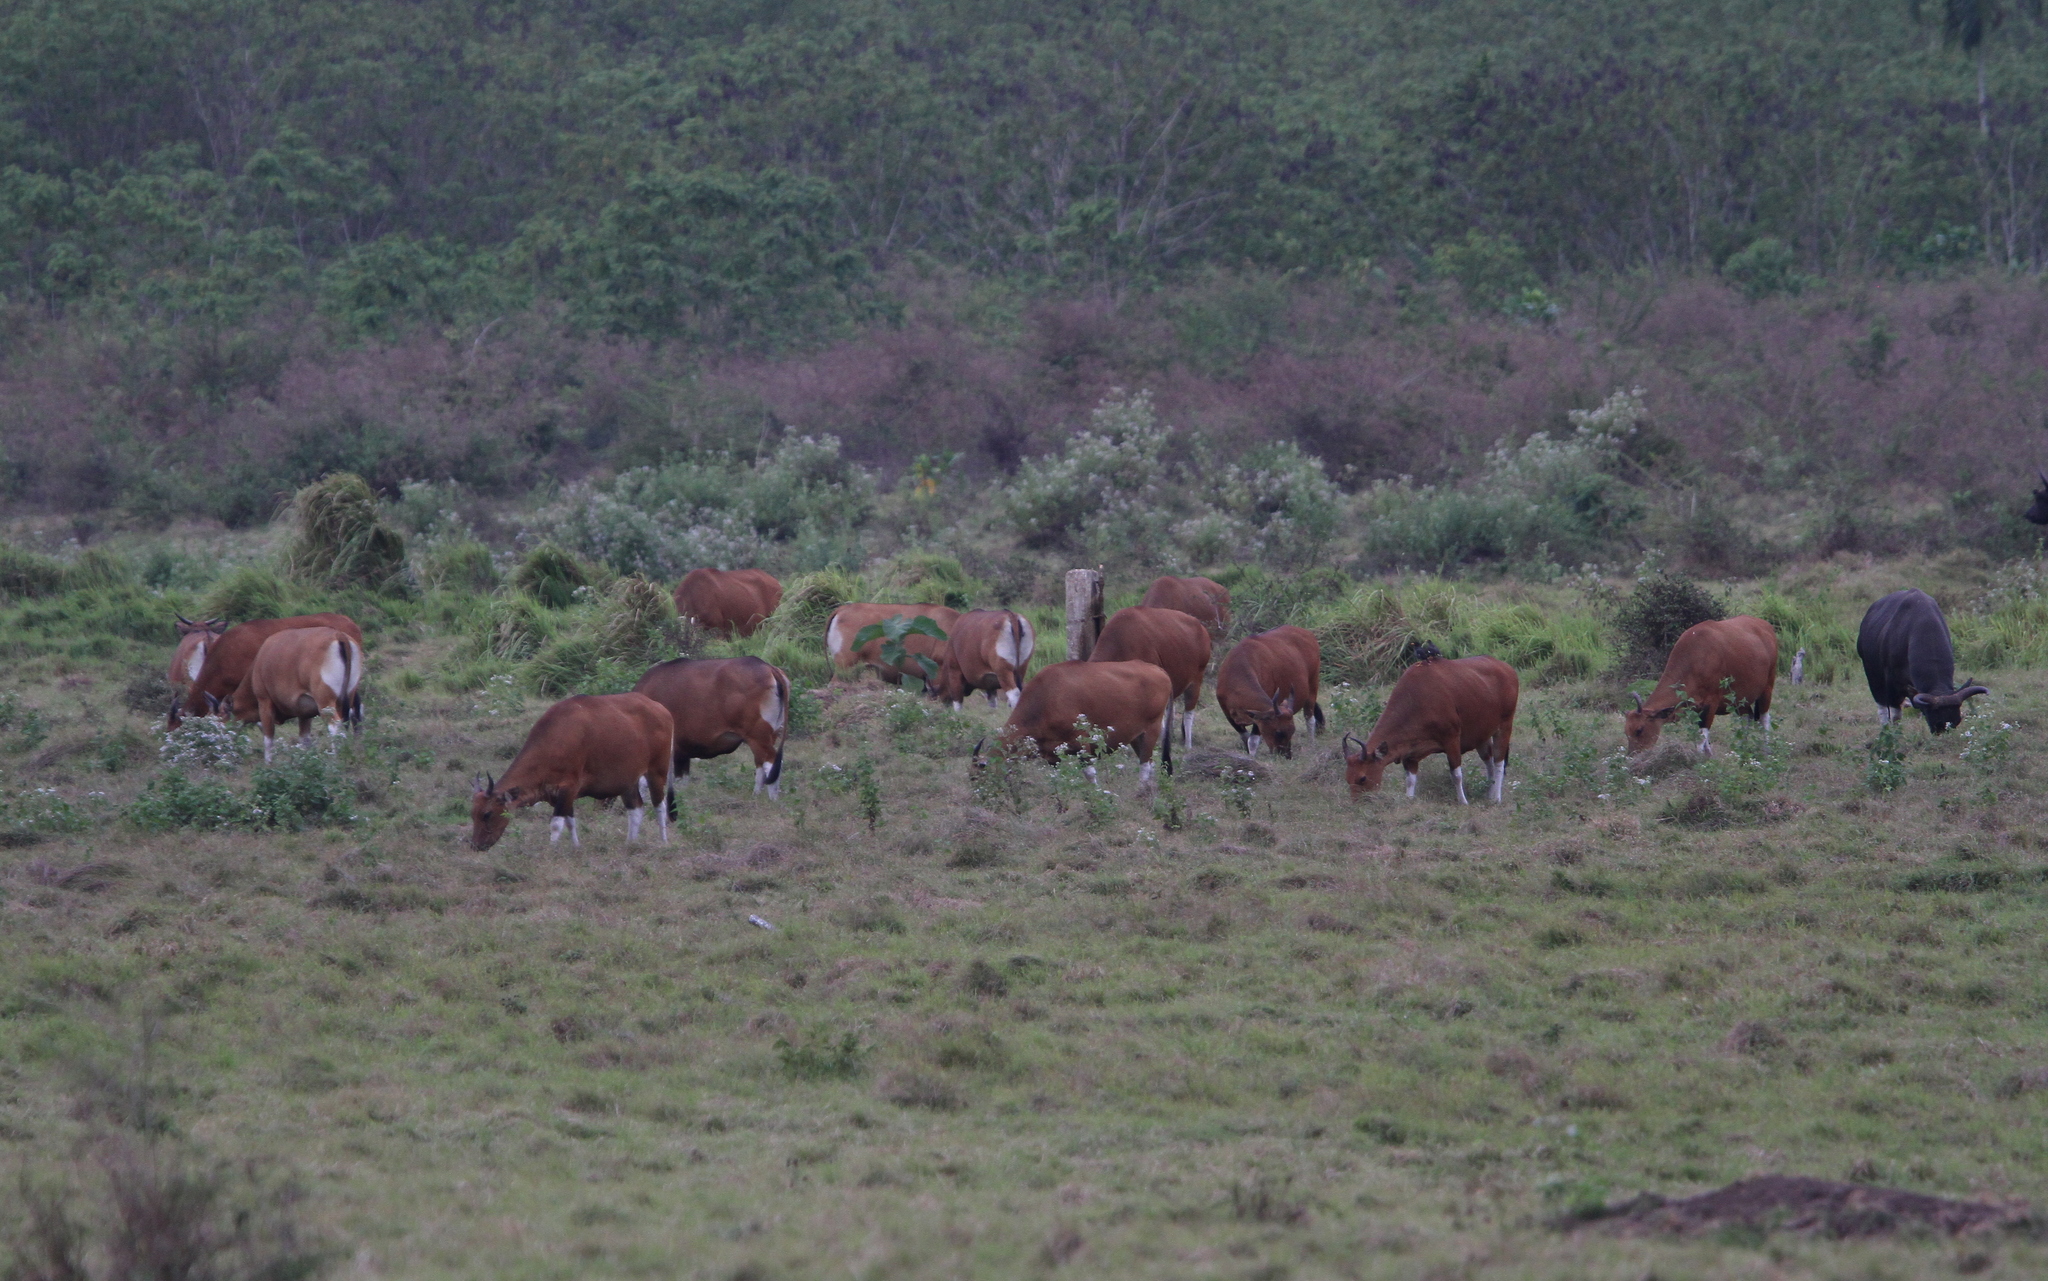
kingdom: Animalia
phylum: Chordata
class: Mammalia
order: Artiodactyla
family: Bovidae
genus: Bos
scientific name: Bos javanicus
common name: Banteng
